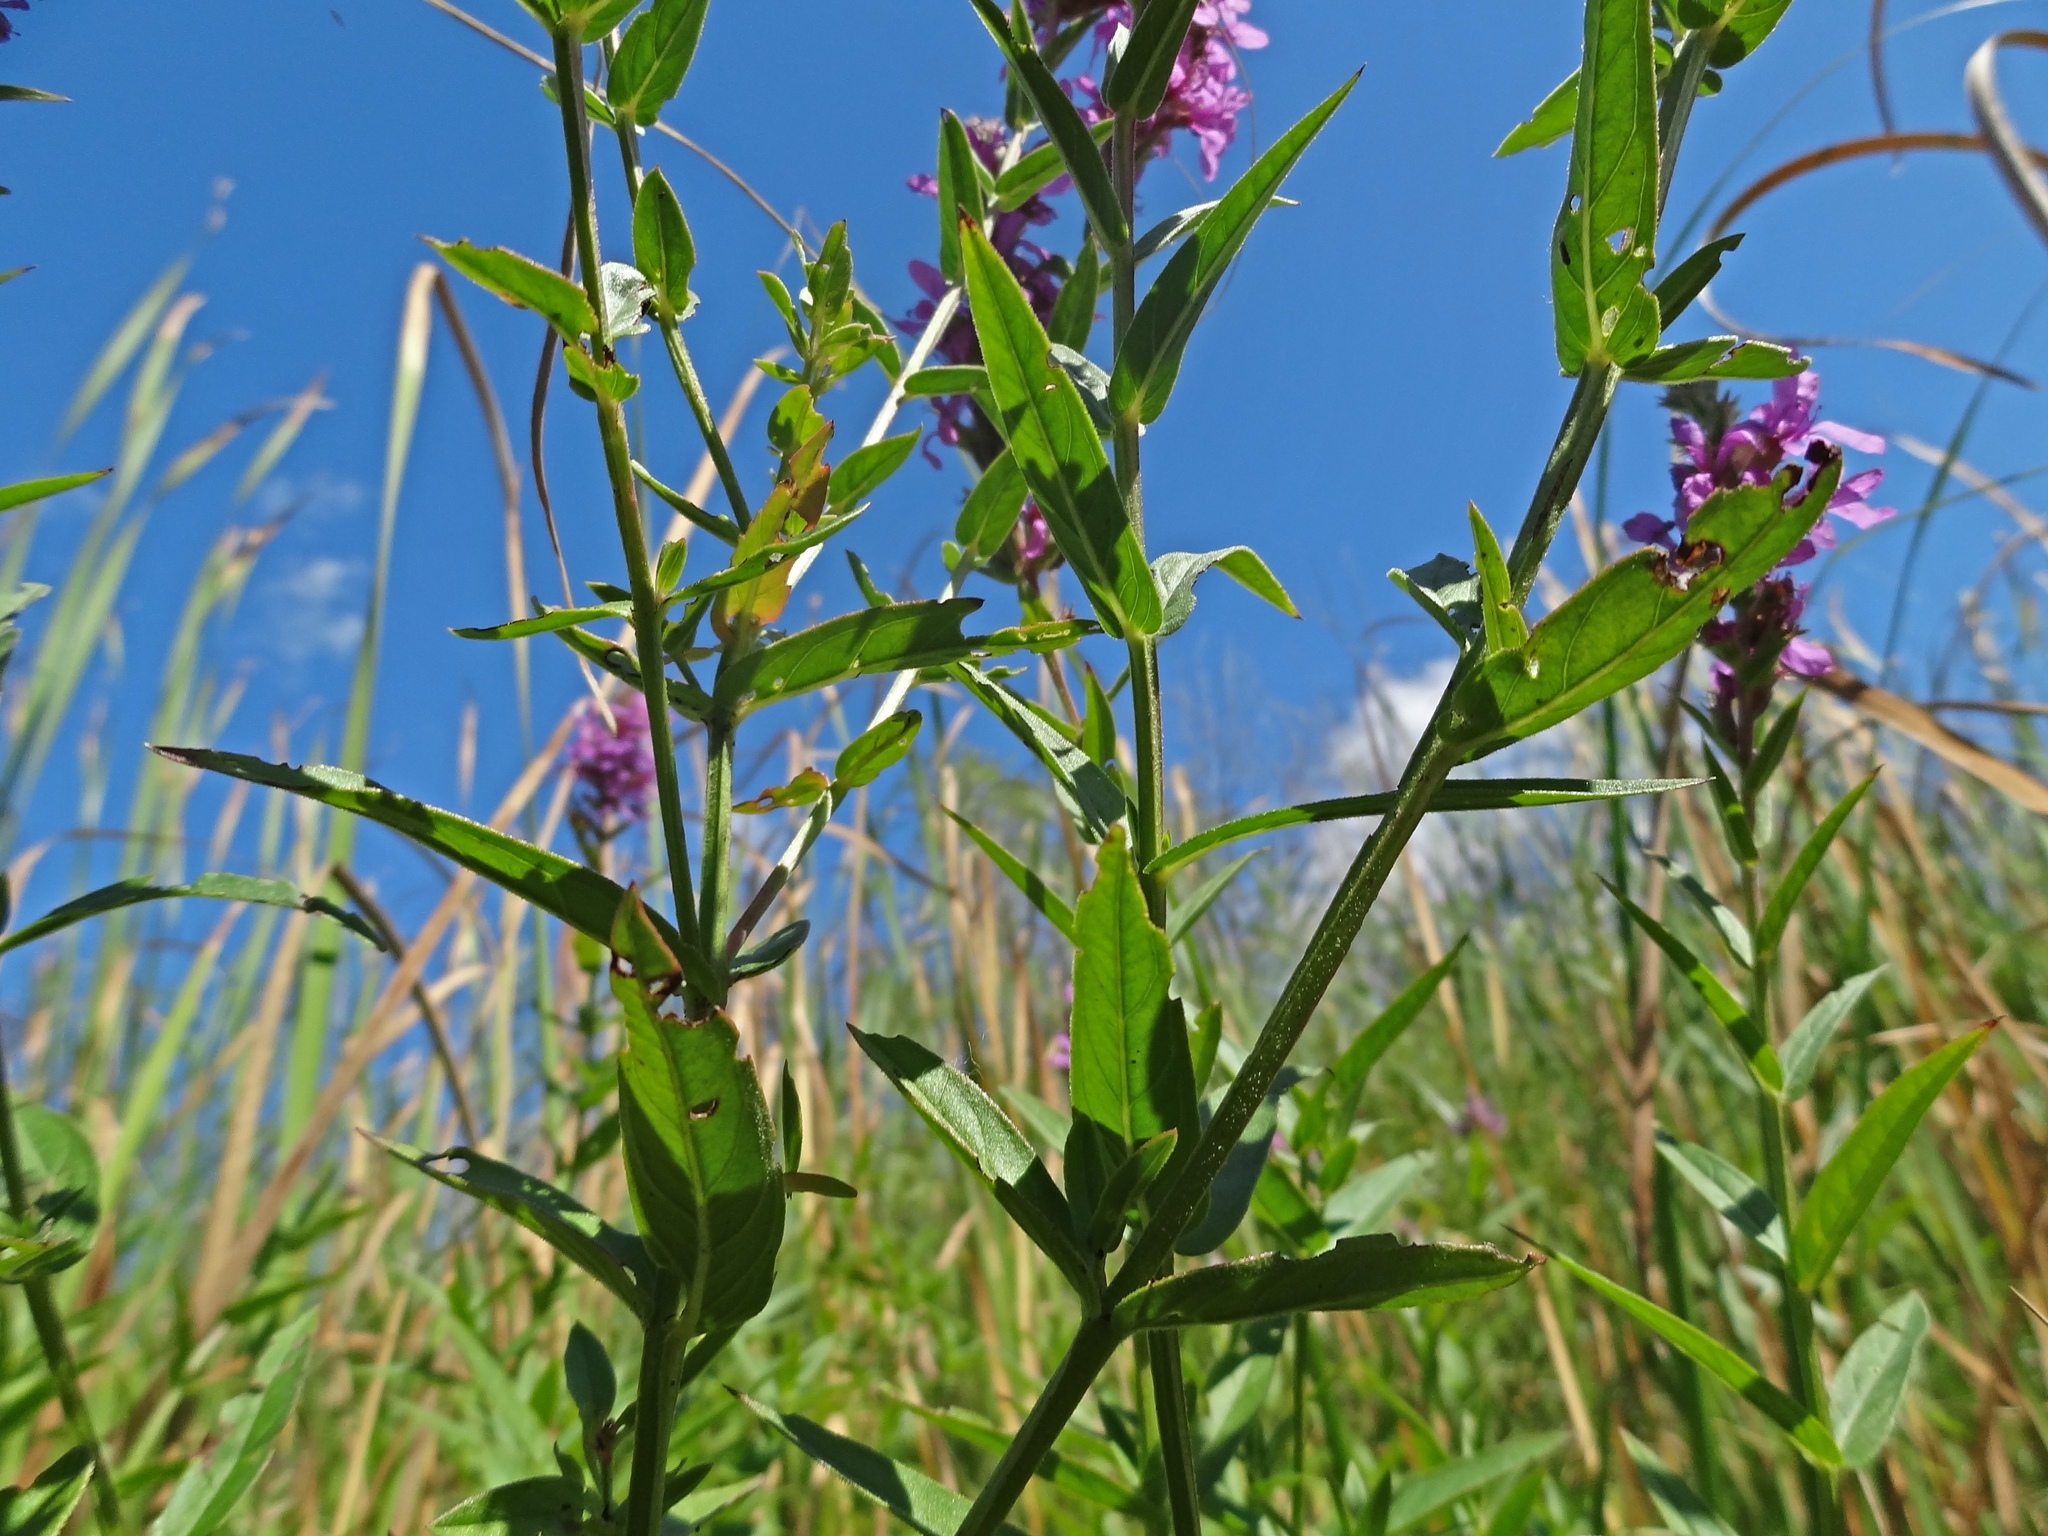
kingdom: Plantae
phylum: Tracheophyta
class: Magnoliopsida
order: Myrtales
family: Lythraceae
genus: Lythrum
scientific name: Lythrum salicaria
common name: Purple loosestrife
